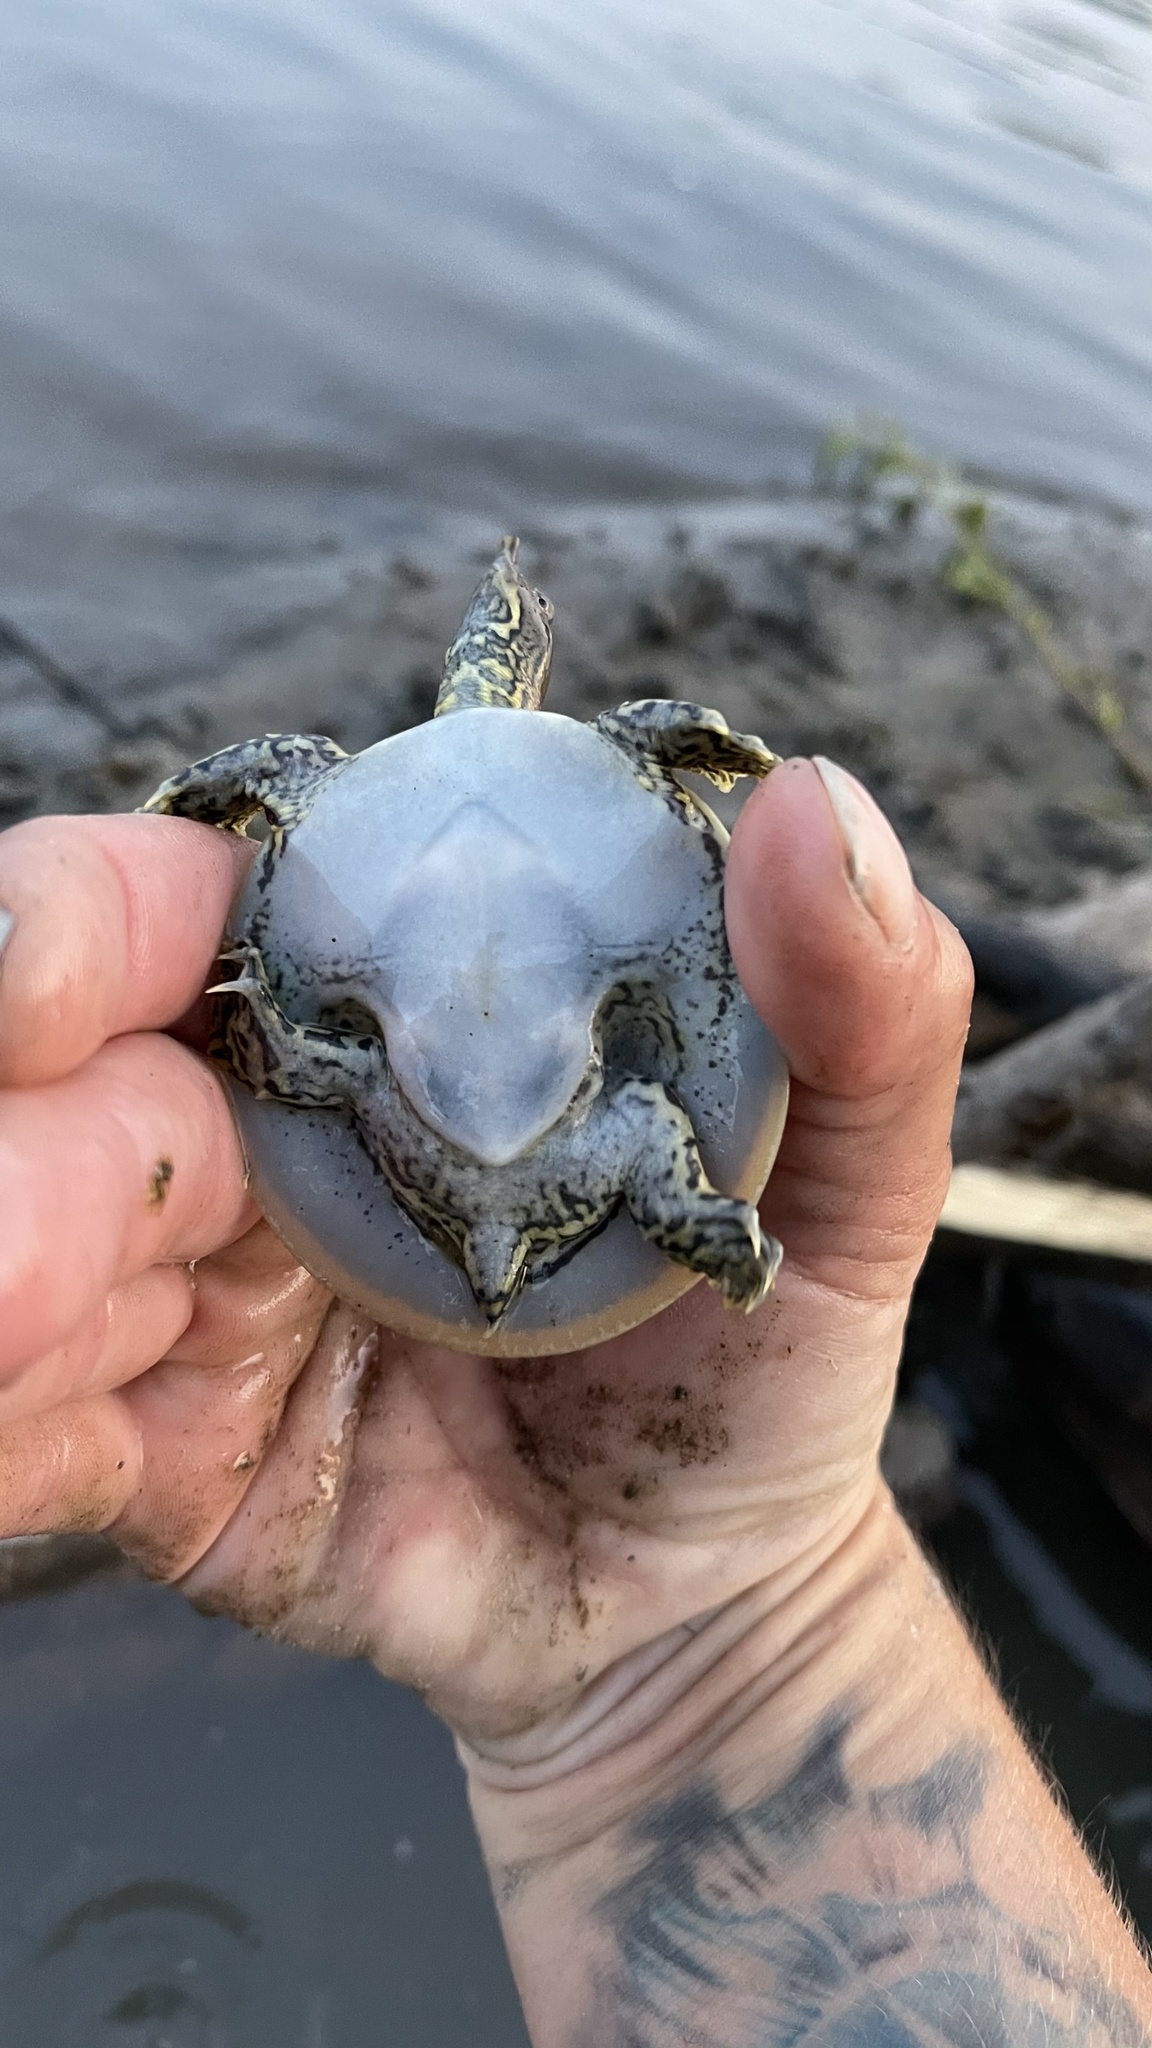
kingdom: Animalia
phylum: Chordata
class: Testudines
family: Trionychidae
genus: Apalone
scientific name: Apalone spinifera
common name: Spiny softshell turtle
